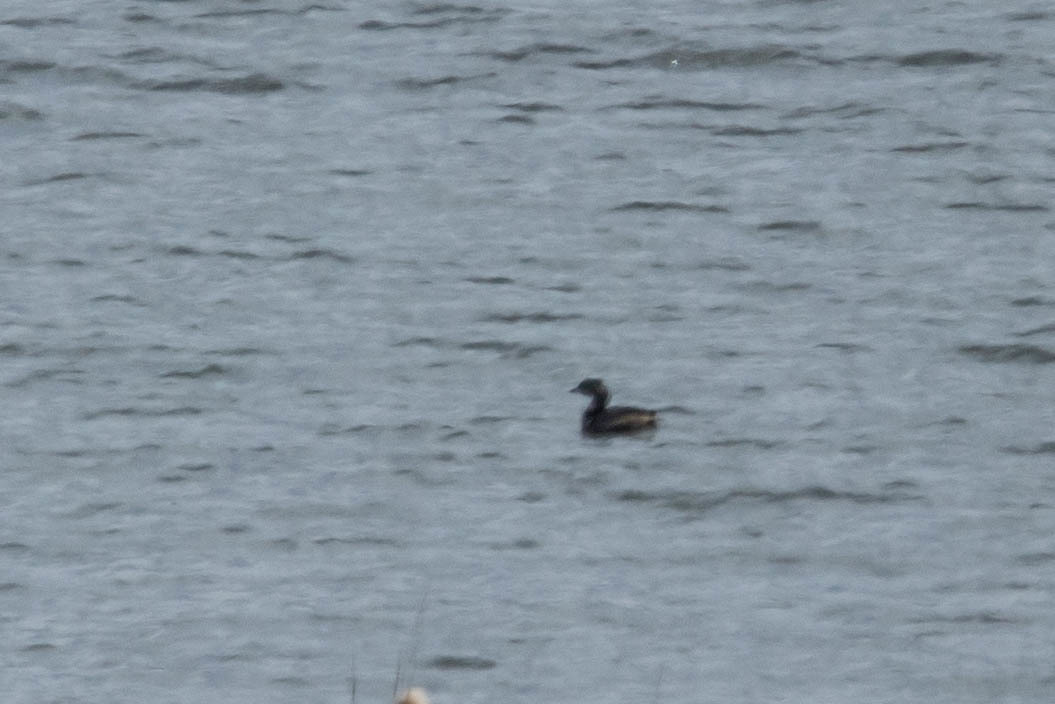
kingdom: Animalia
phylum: Chordata
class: Aves
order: Podicipediformes
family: Podicipedidae
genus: Podilymbus
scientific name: Podilymbus podiceps
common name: Pied-billed grebe
